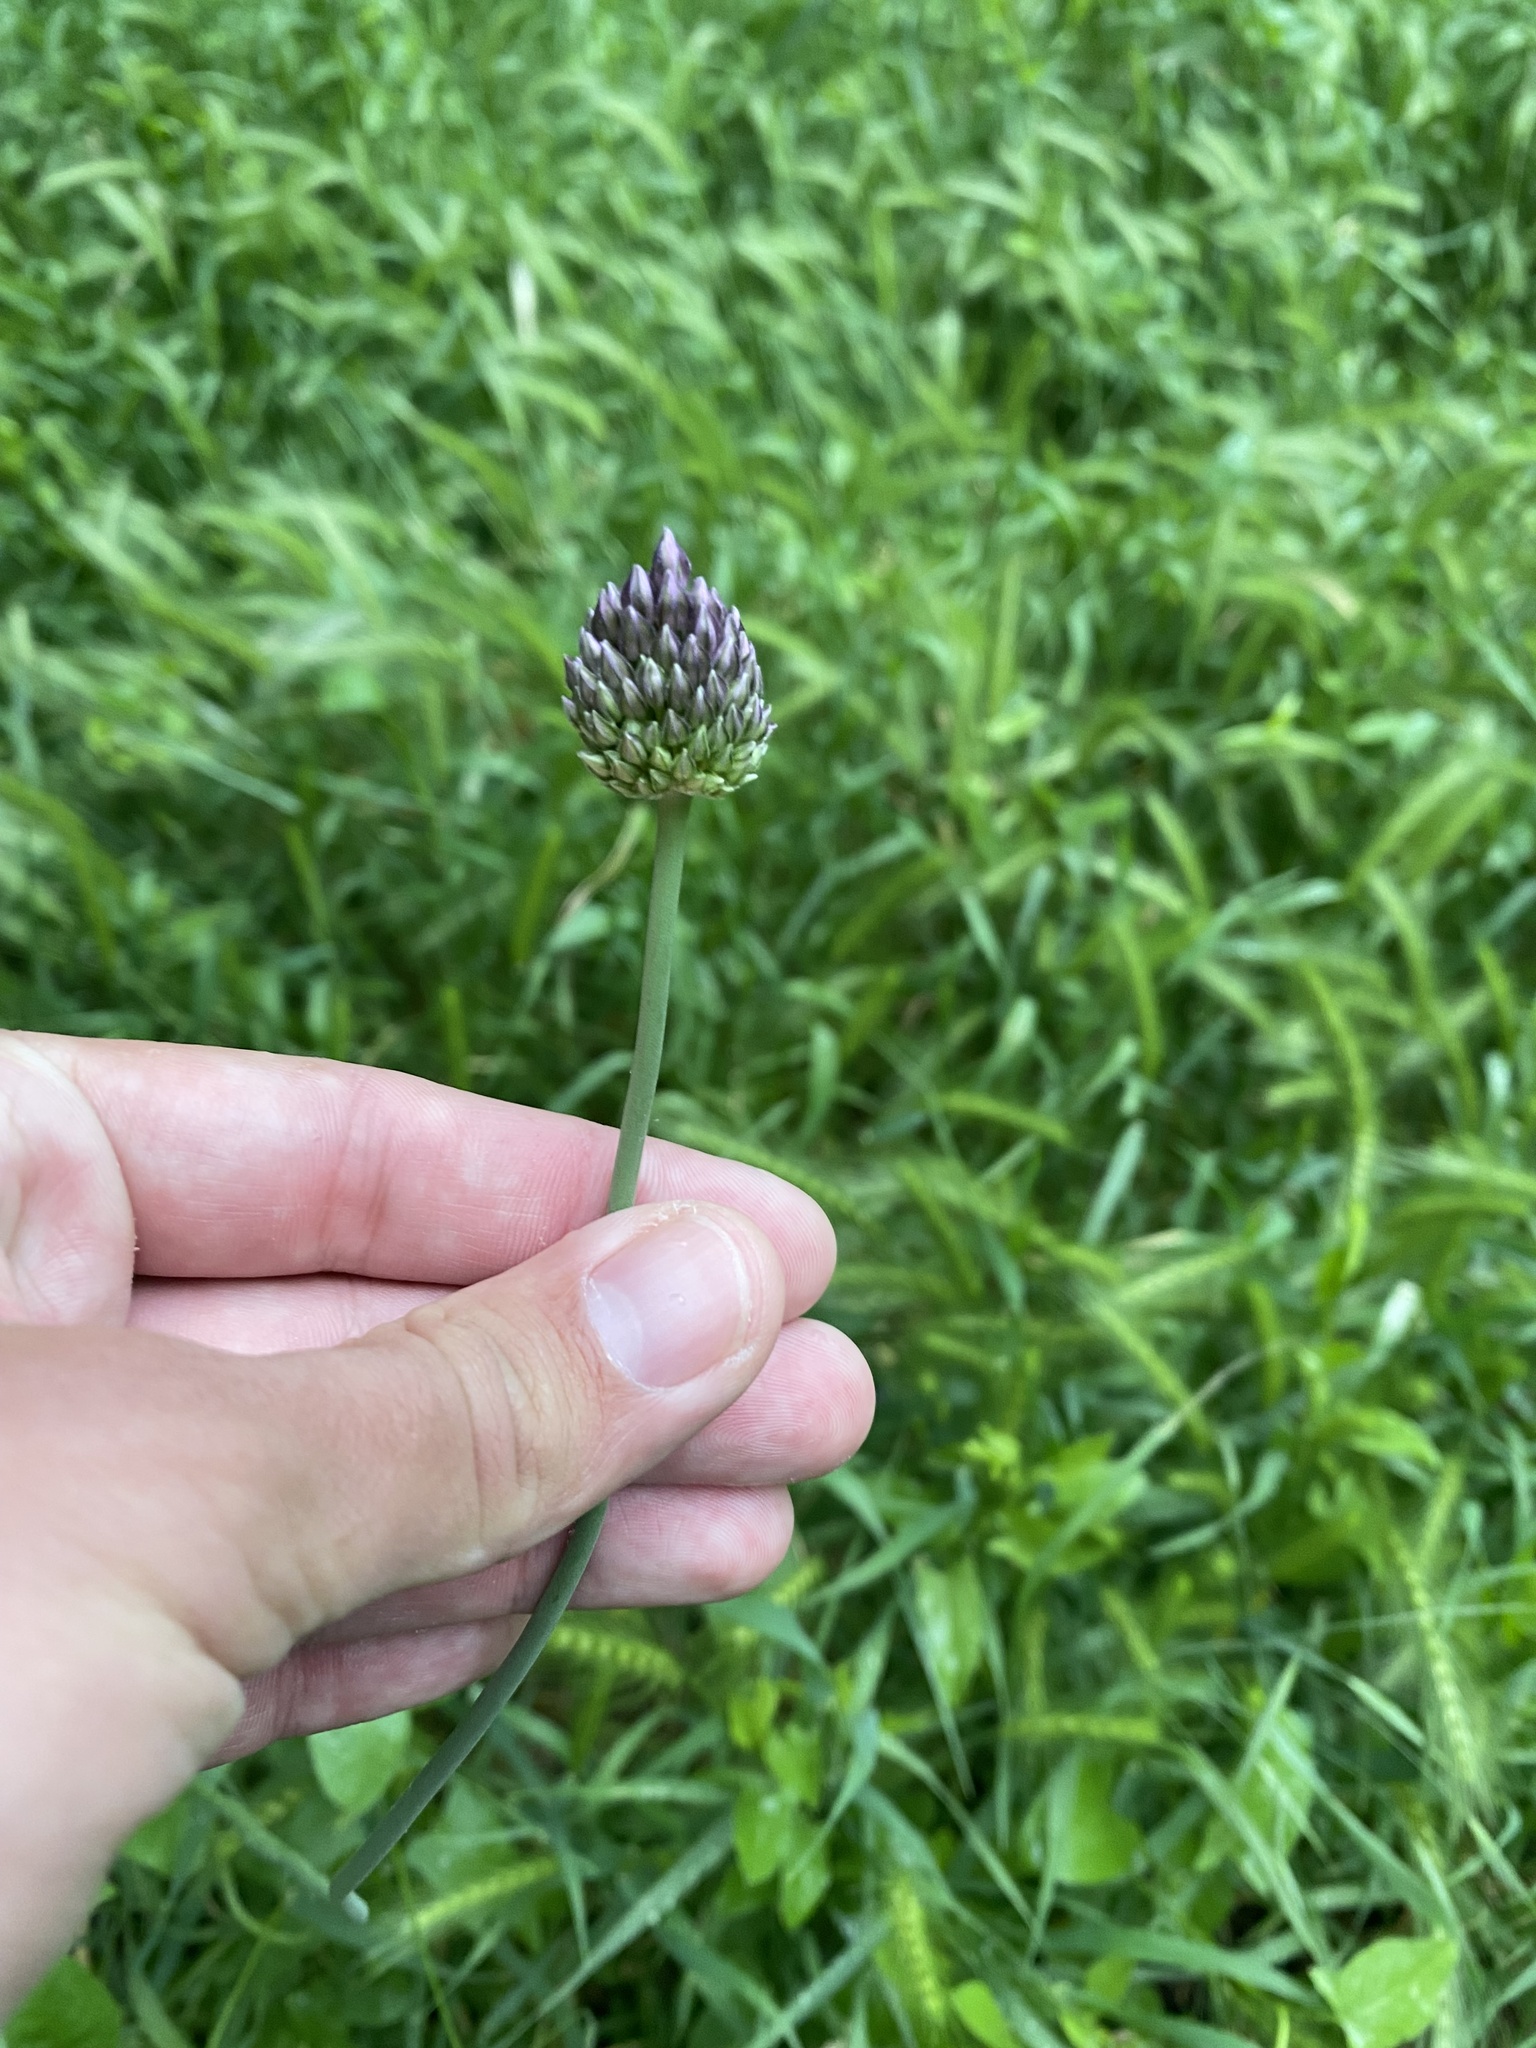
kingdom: Plantae
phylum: Tracheophyta
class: Liliopsida
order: Asparagales
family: Amaryllidaceae
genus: Allium
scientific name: Allium rotundum
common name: Sand leek
